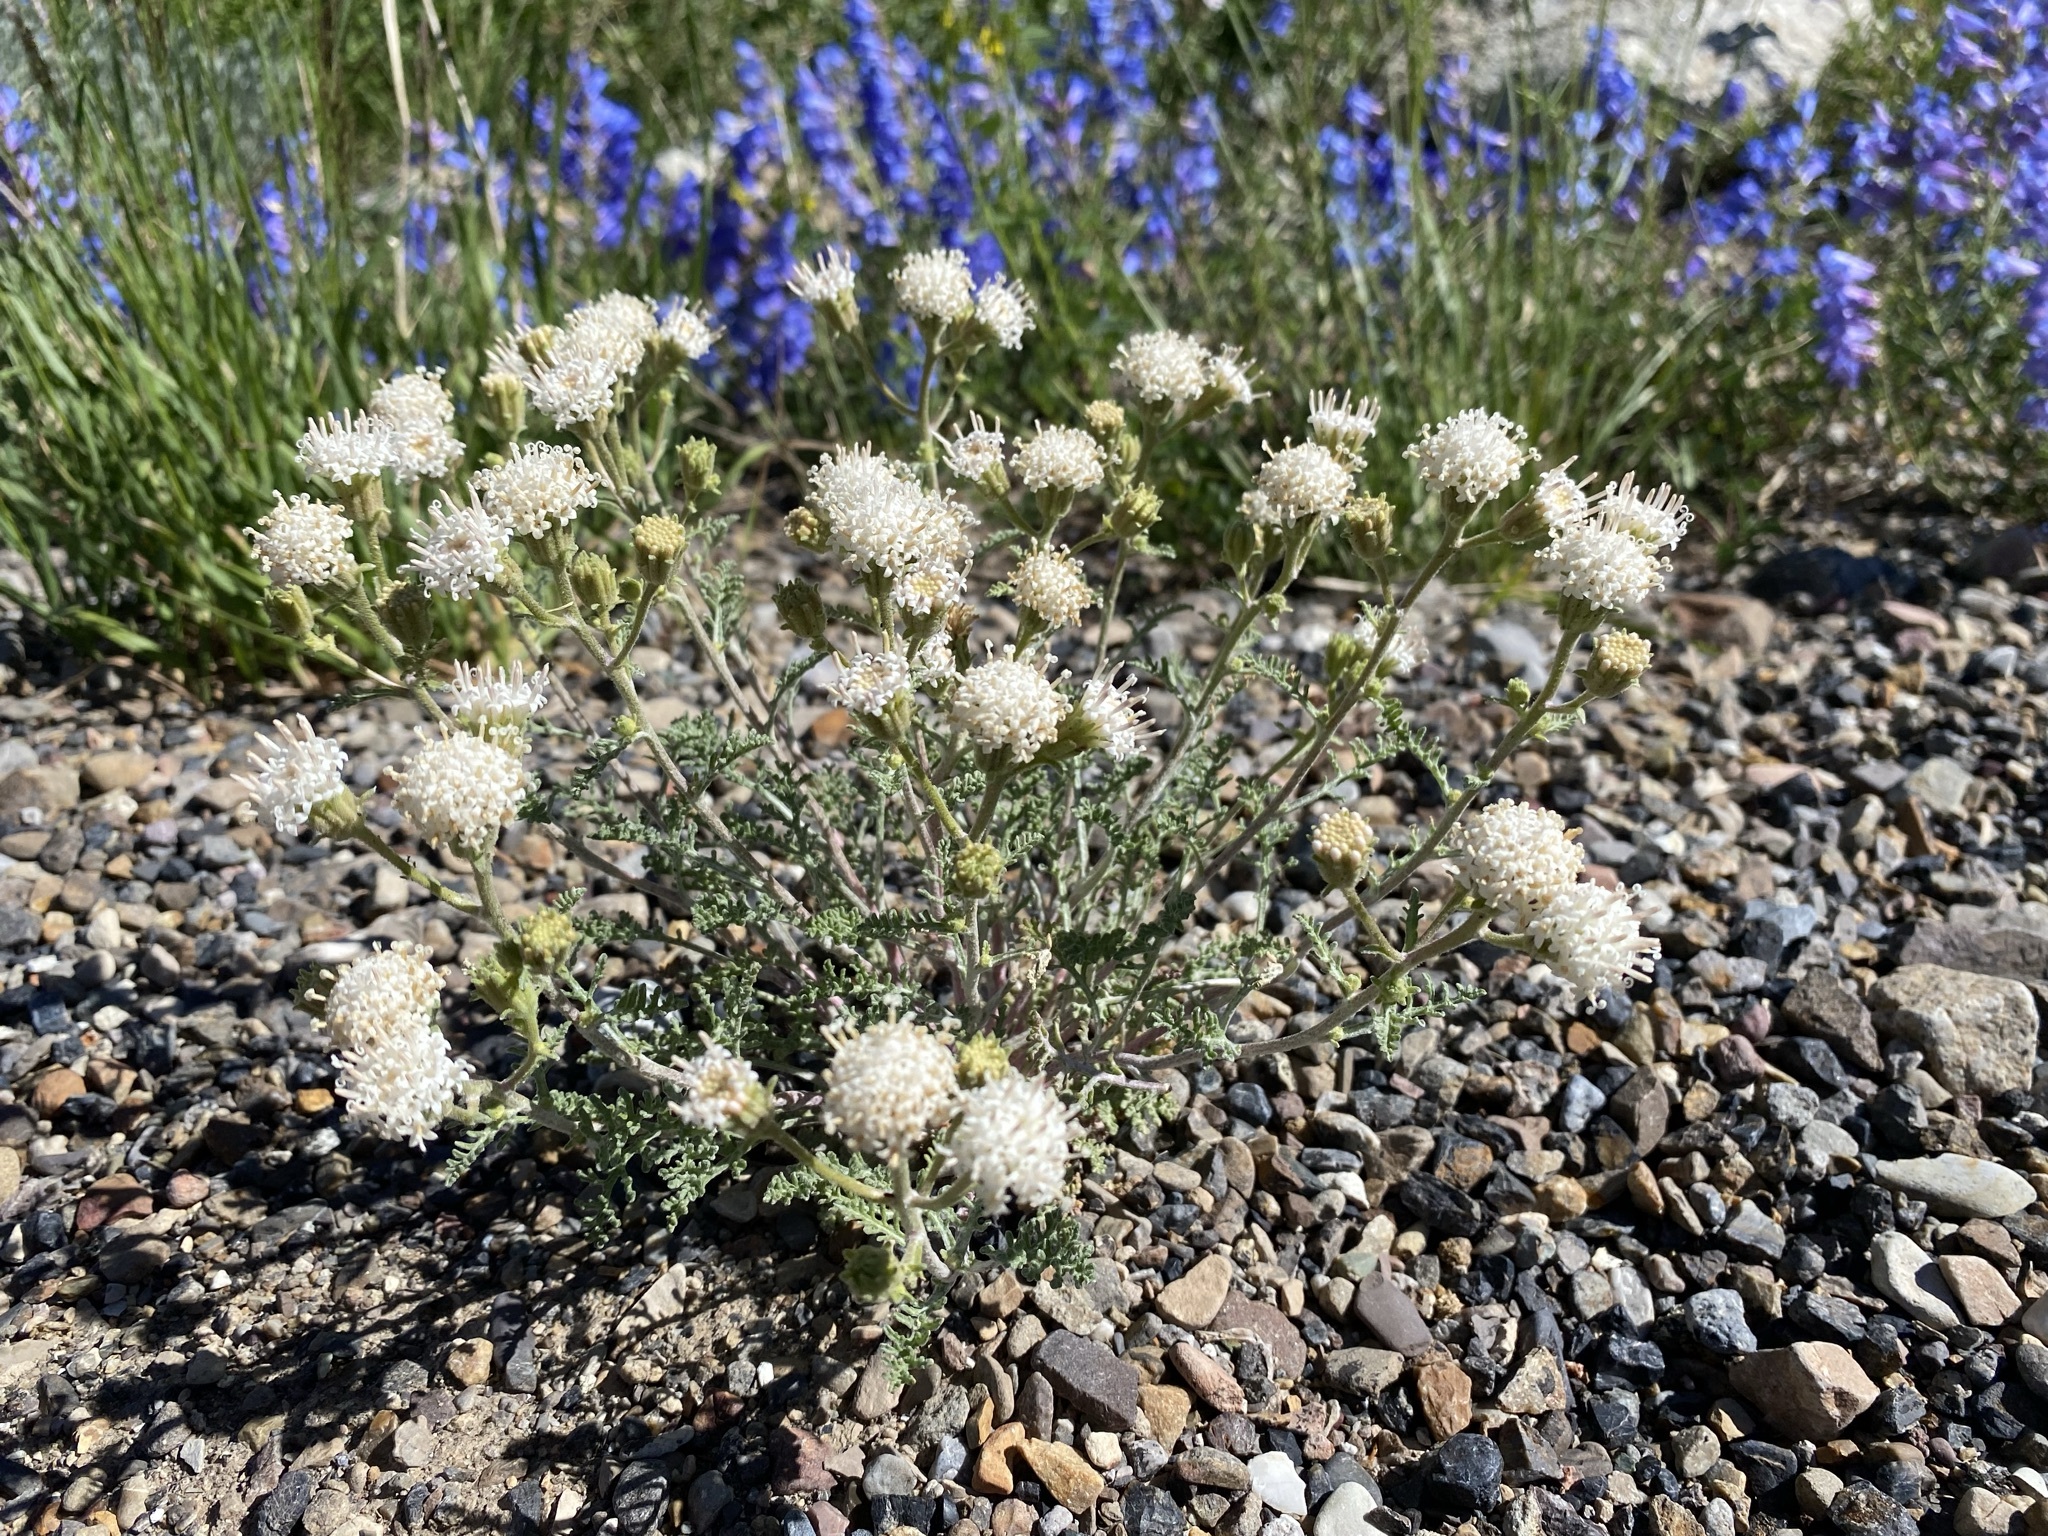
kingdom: Plantae
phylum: Tracheophyta
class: Magnoliopsida
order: Asterales
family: Asteraceae
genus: Chaenactis
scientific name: Chaenactis douglasii
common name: Hoary pincushion
